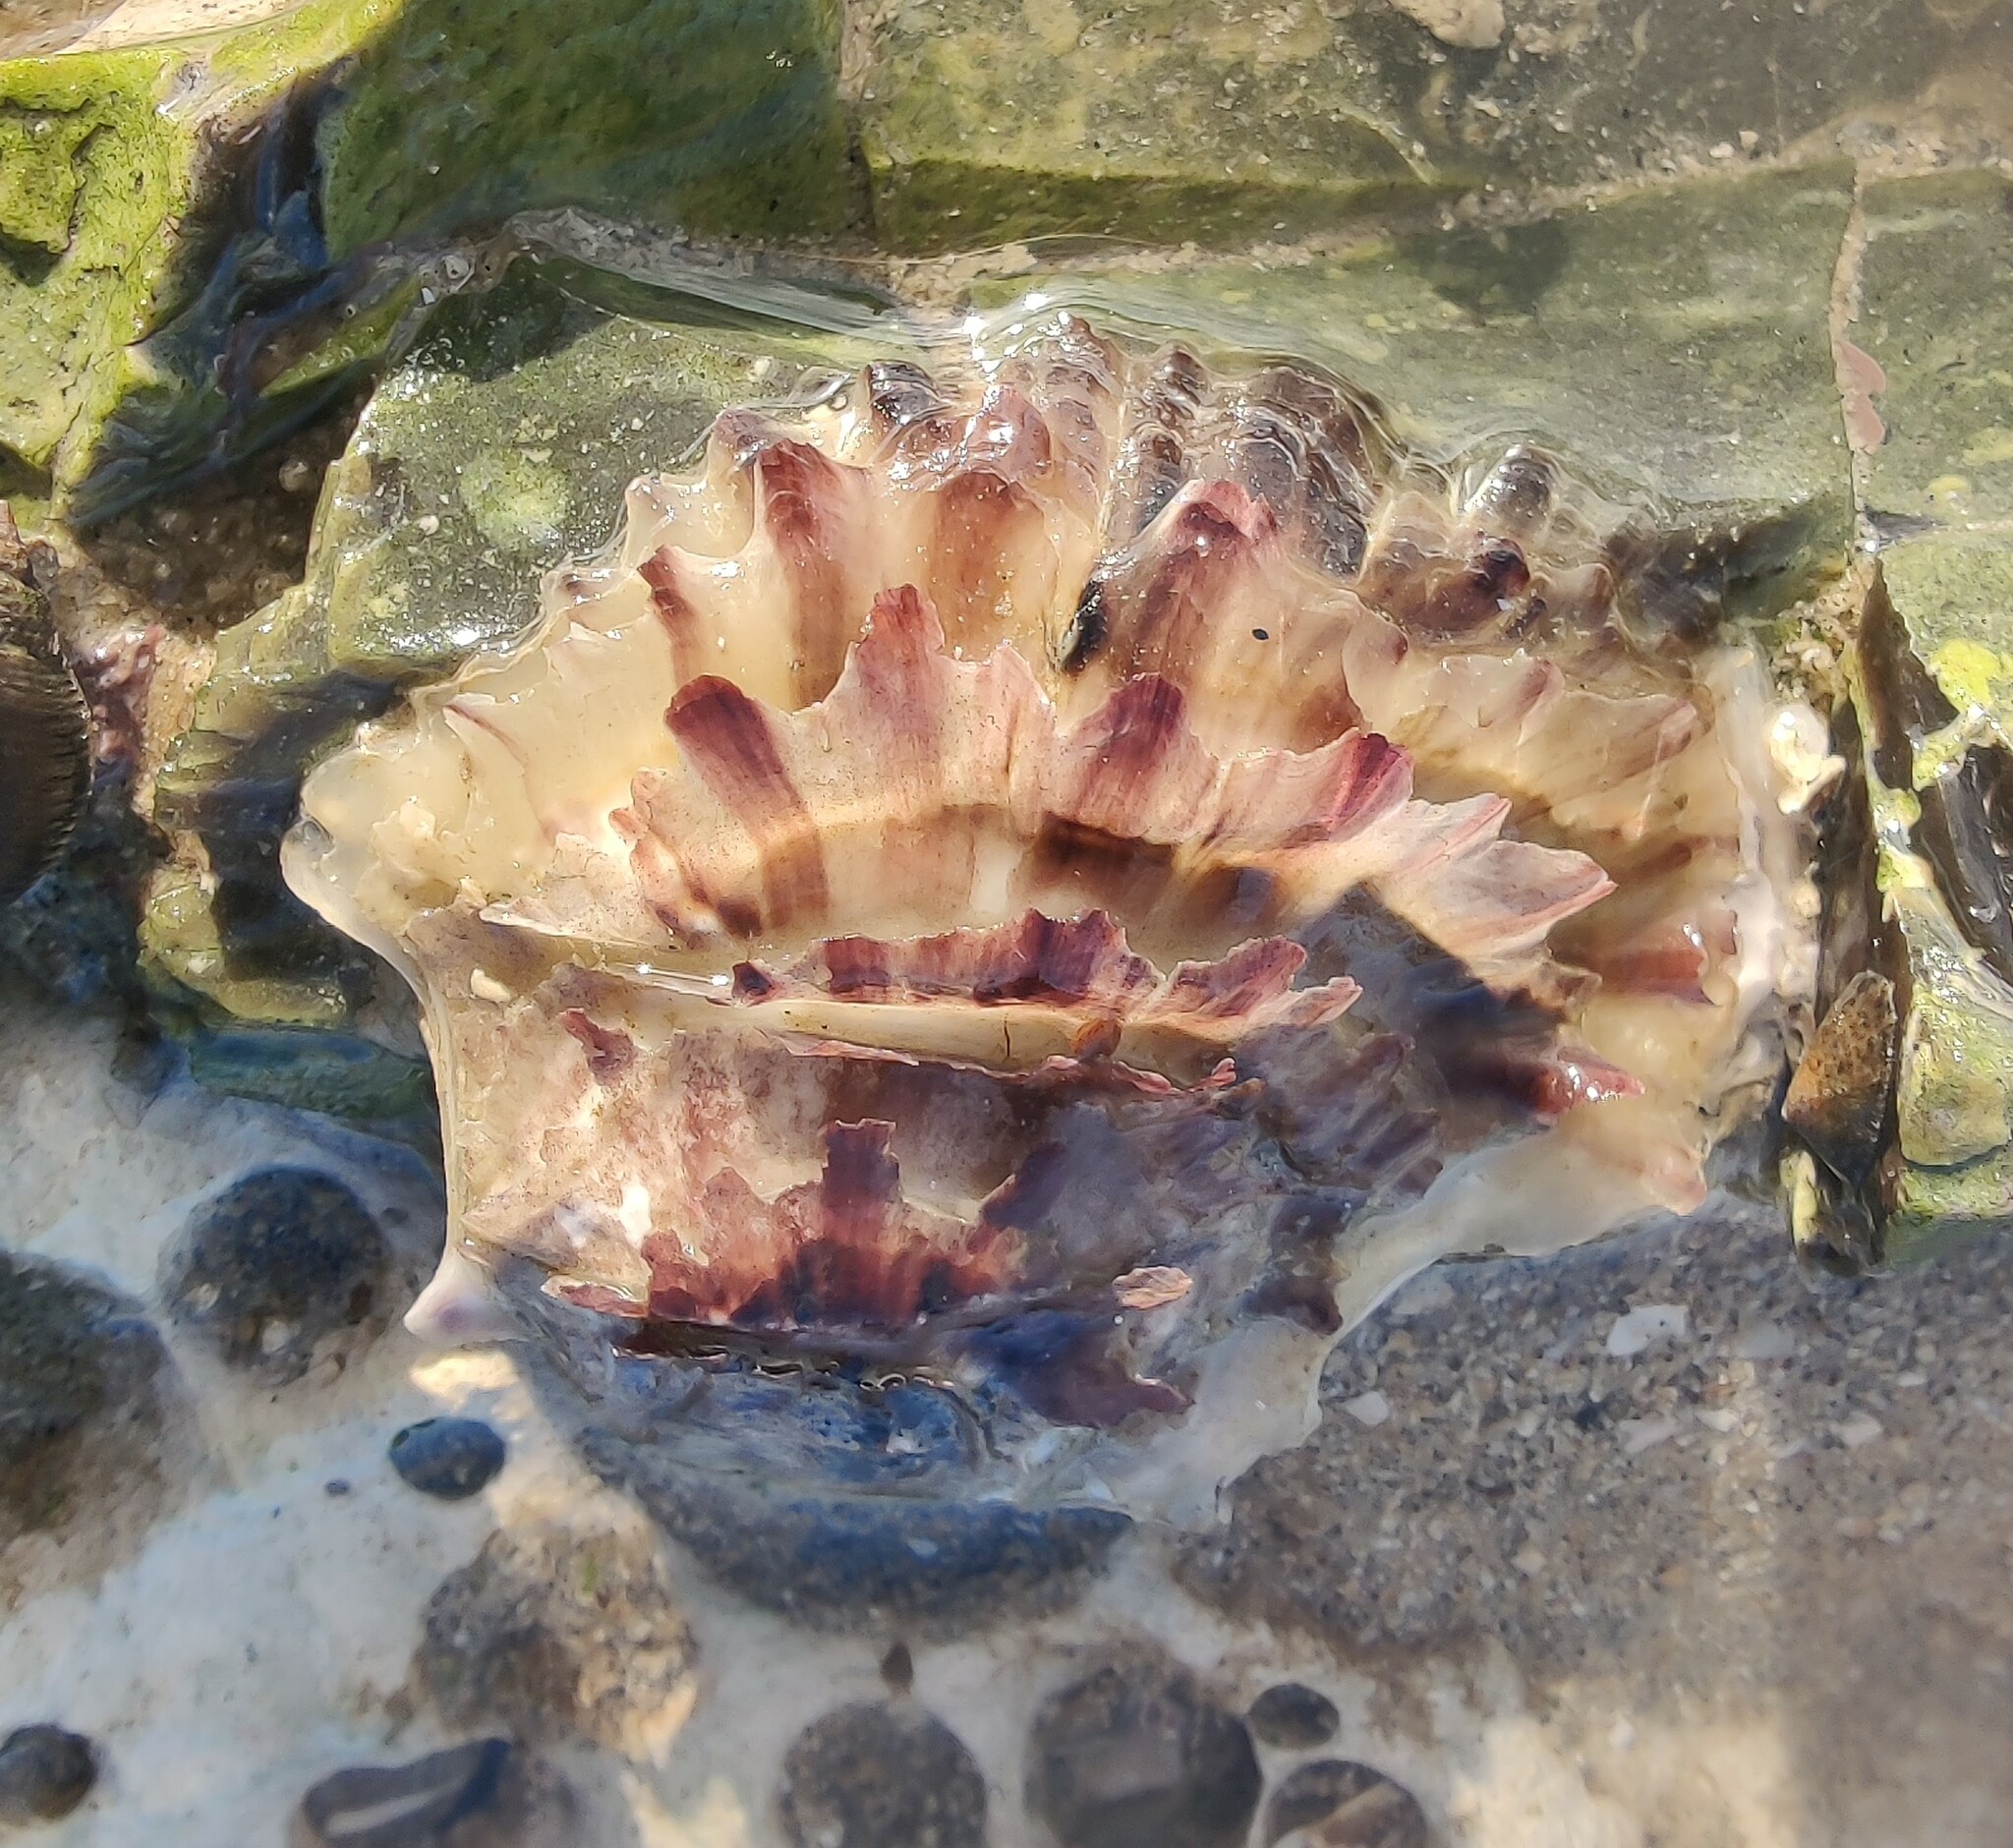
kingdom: Animalia
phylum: Mollusca
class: Bivalvia
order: Ostreida
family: Ostreidae
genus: Magallana
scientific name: Magallana gigas
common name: Pacific oyster
